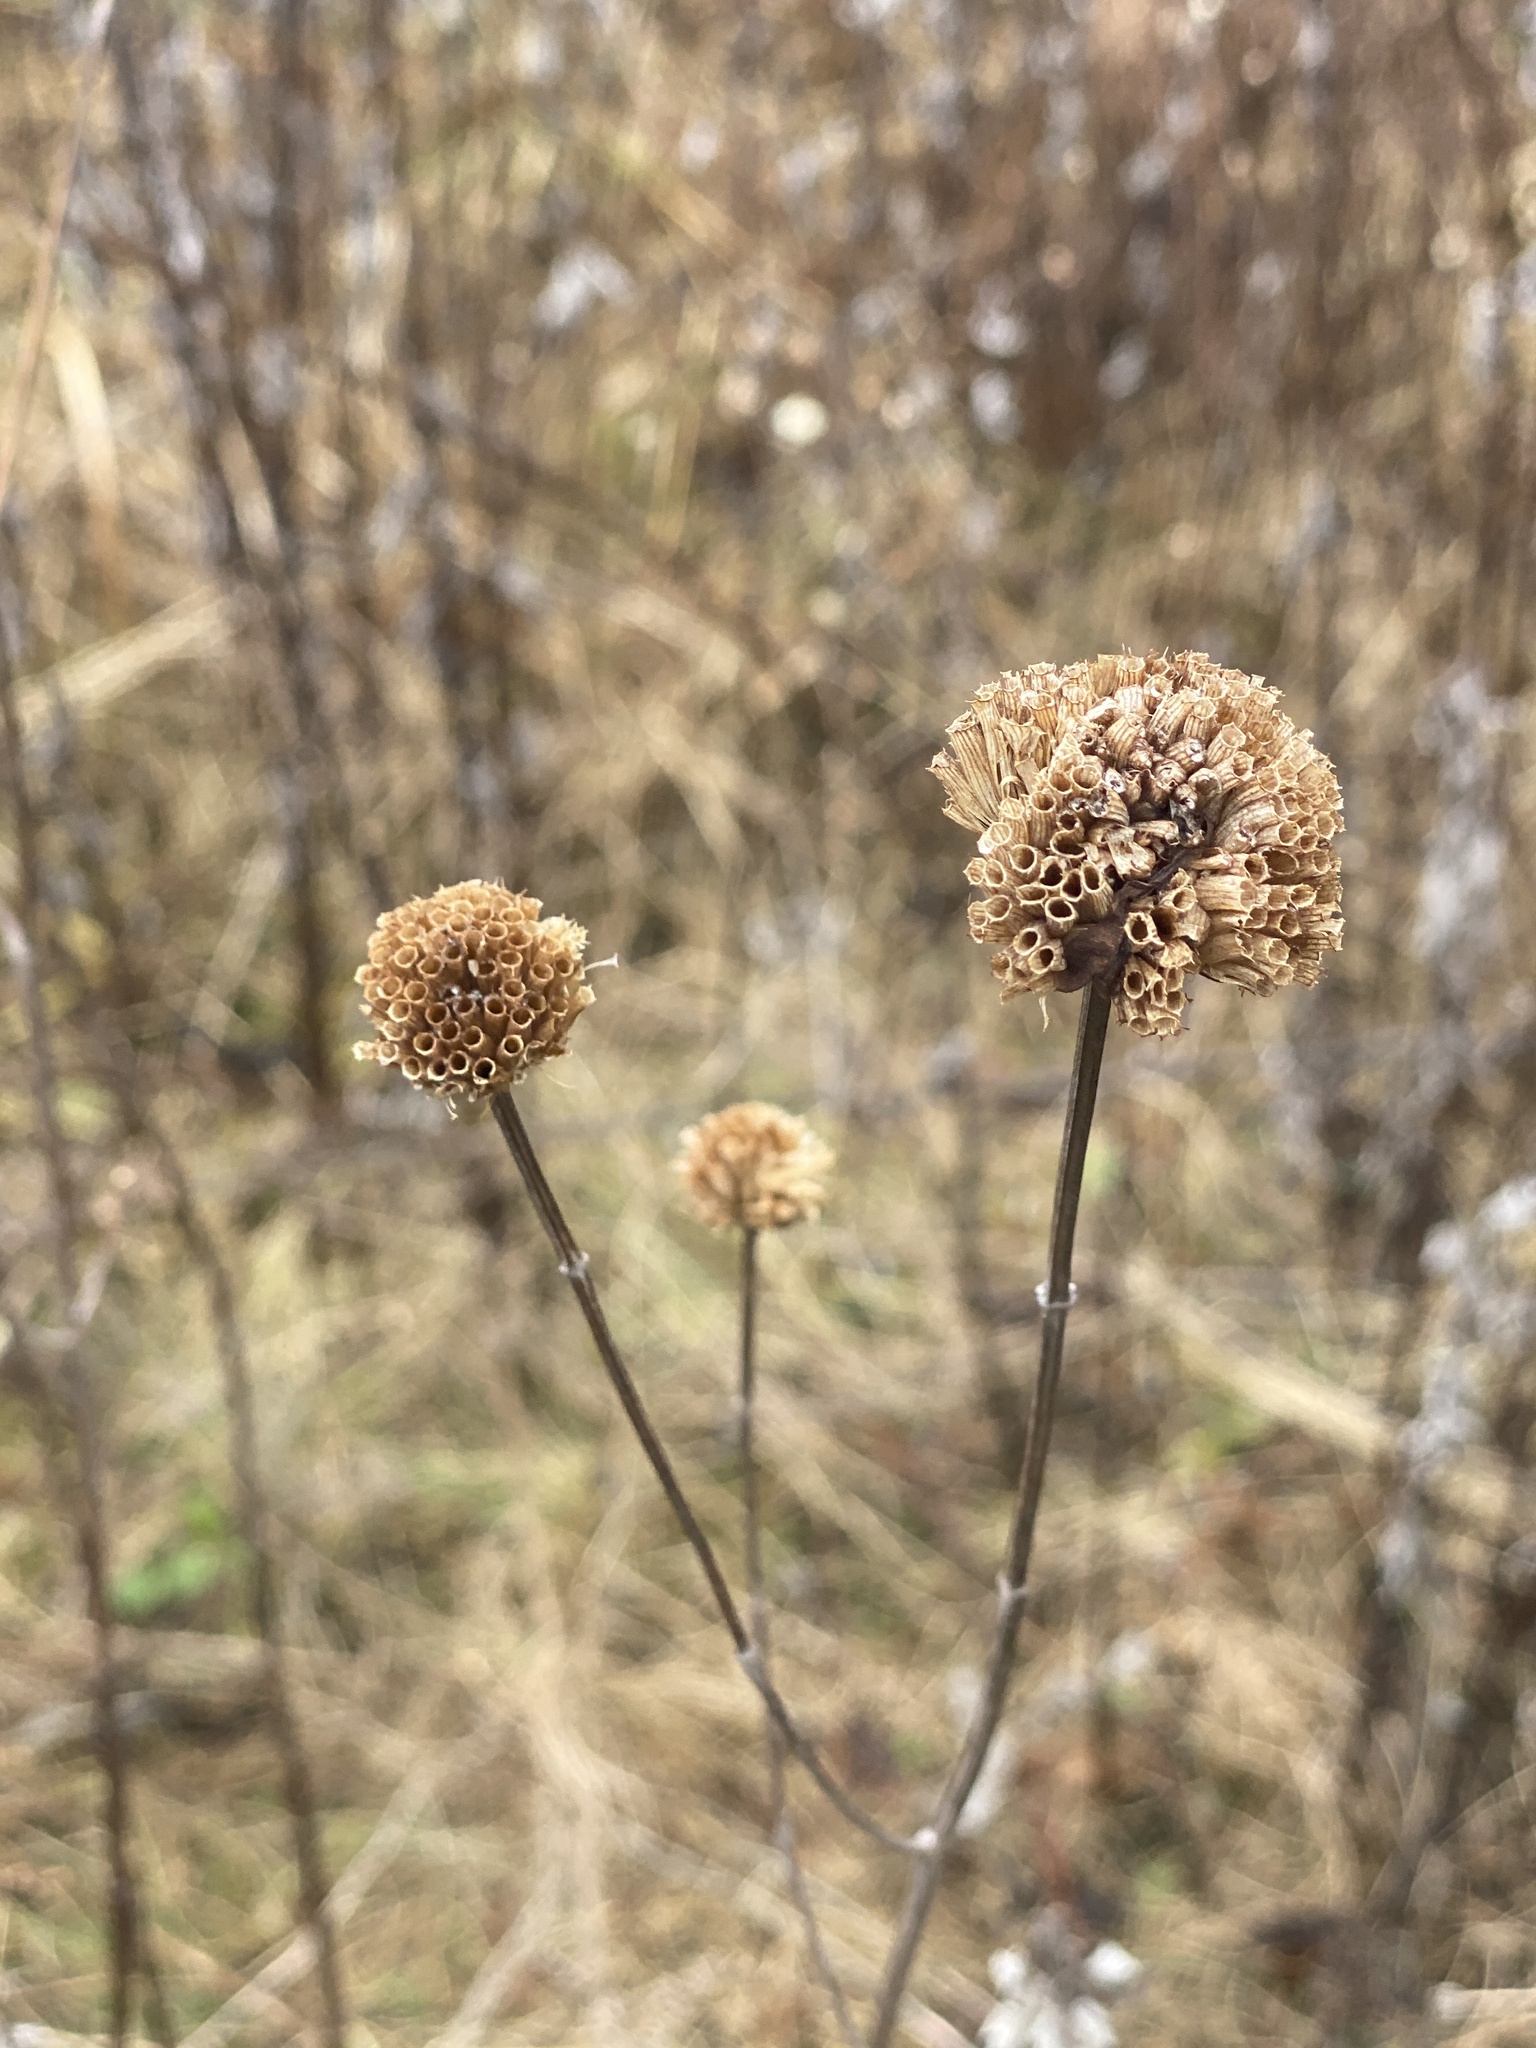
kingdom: Plantae
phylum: Tracheophyta
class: Magnoliopsida
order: Lamiales
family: Lamiaceae
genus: Monarda
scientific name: Monarda fistulosa
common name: Purple beebalm
